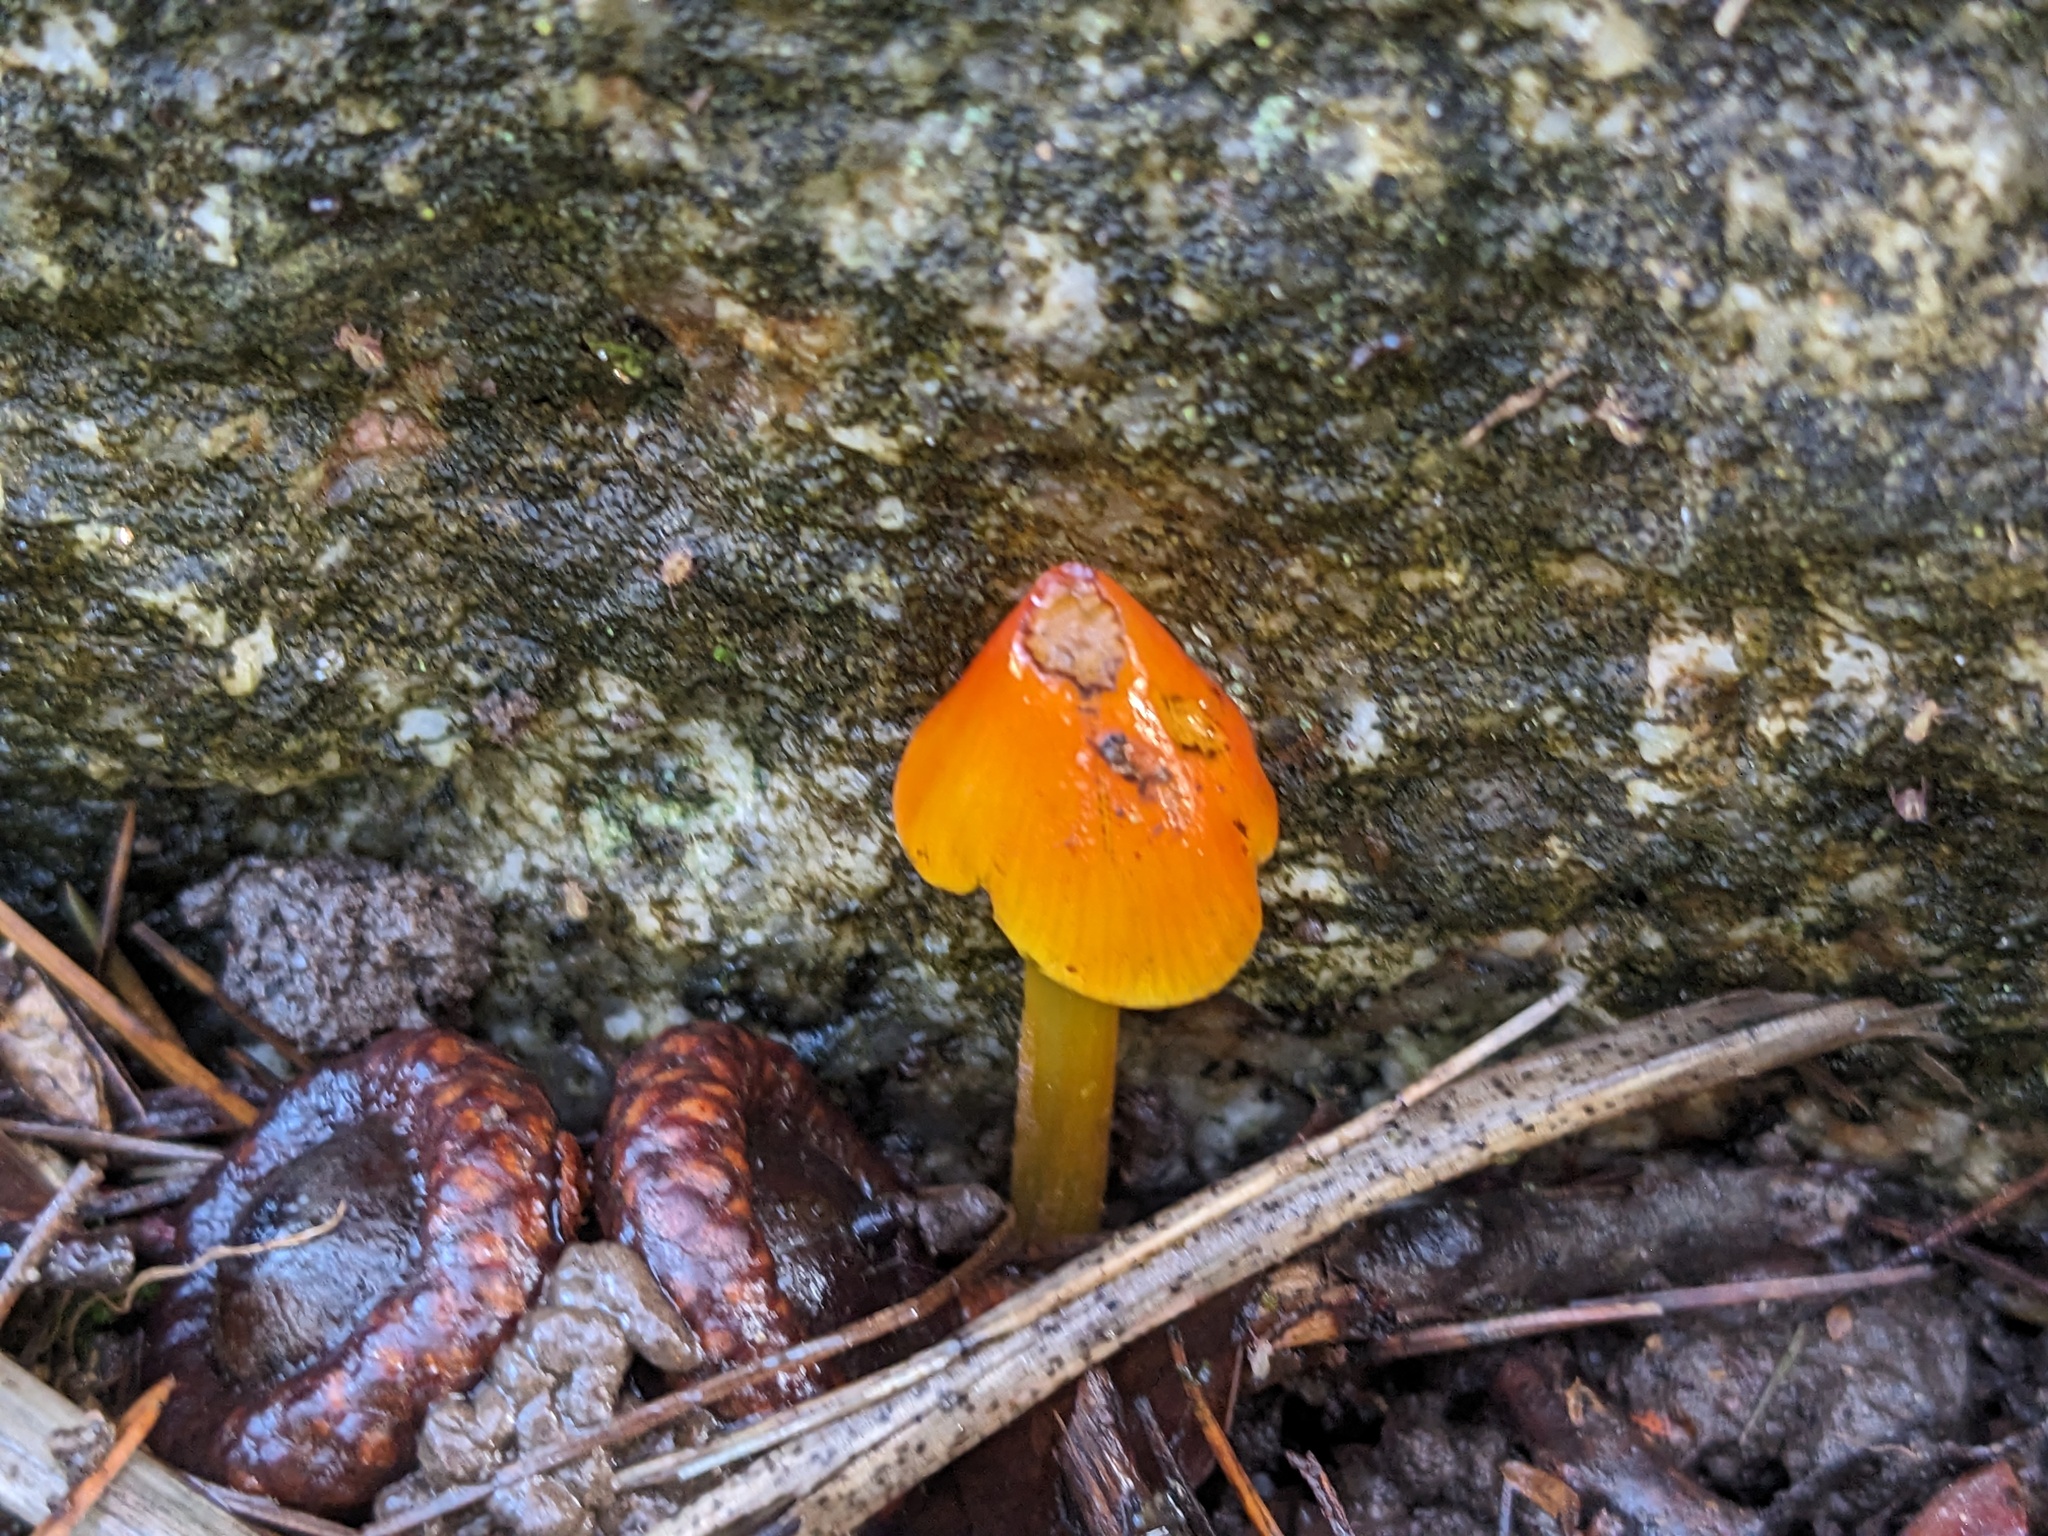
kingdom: Fungi
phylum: Basidiomycota
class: Agaricomycetes
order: Agaricales
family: Hygrophoraceae
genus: Hygrocybe
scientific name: Hygrocybe conica
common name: Blackening wax-cap
